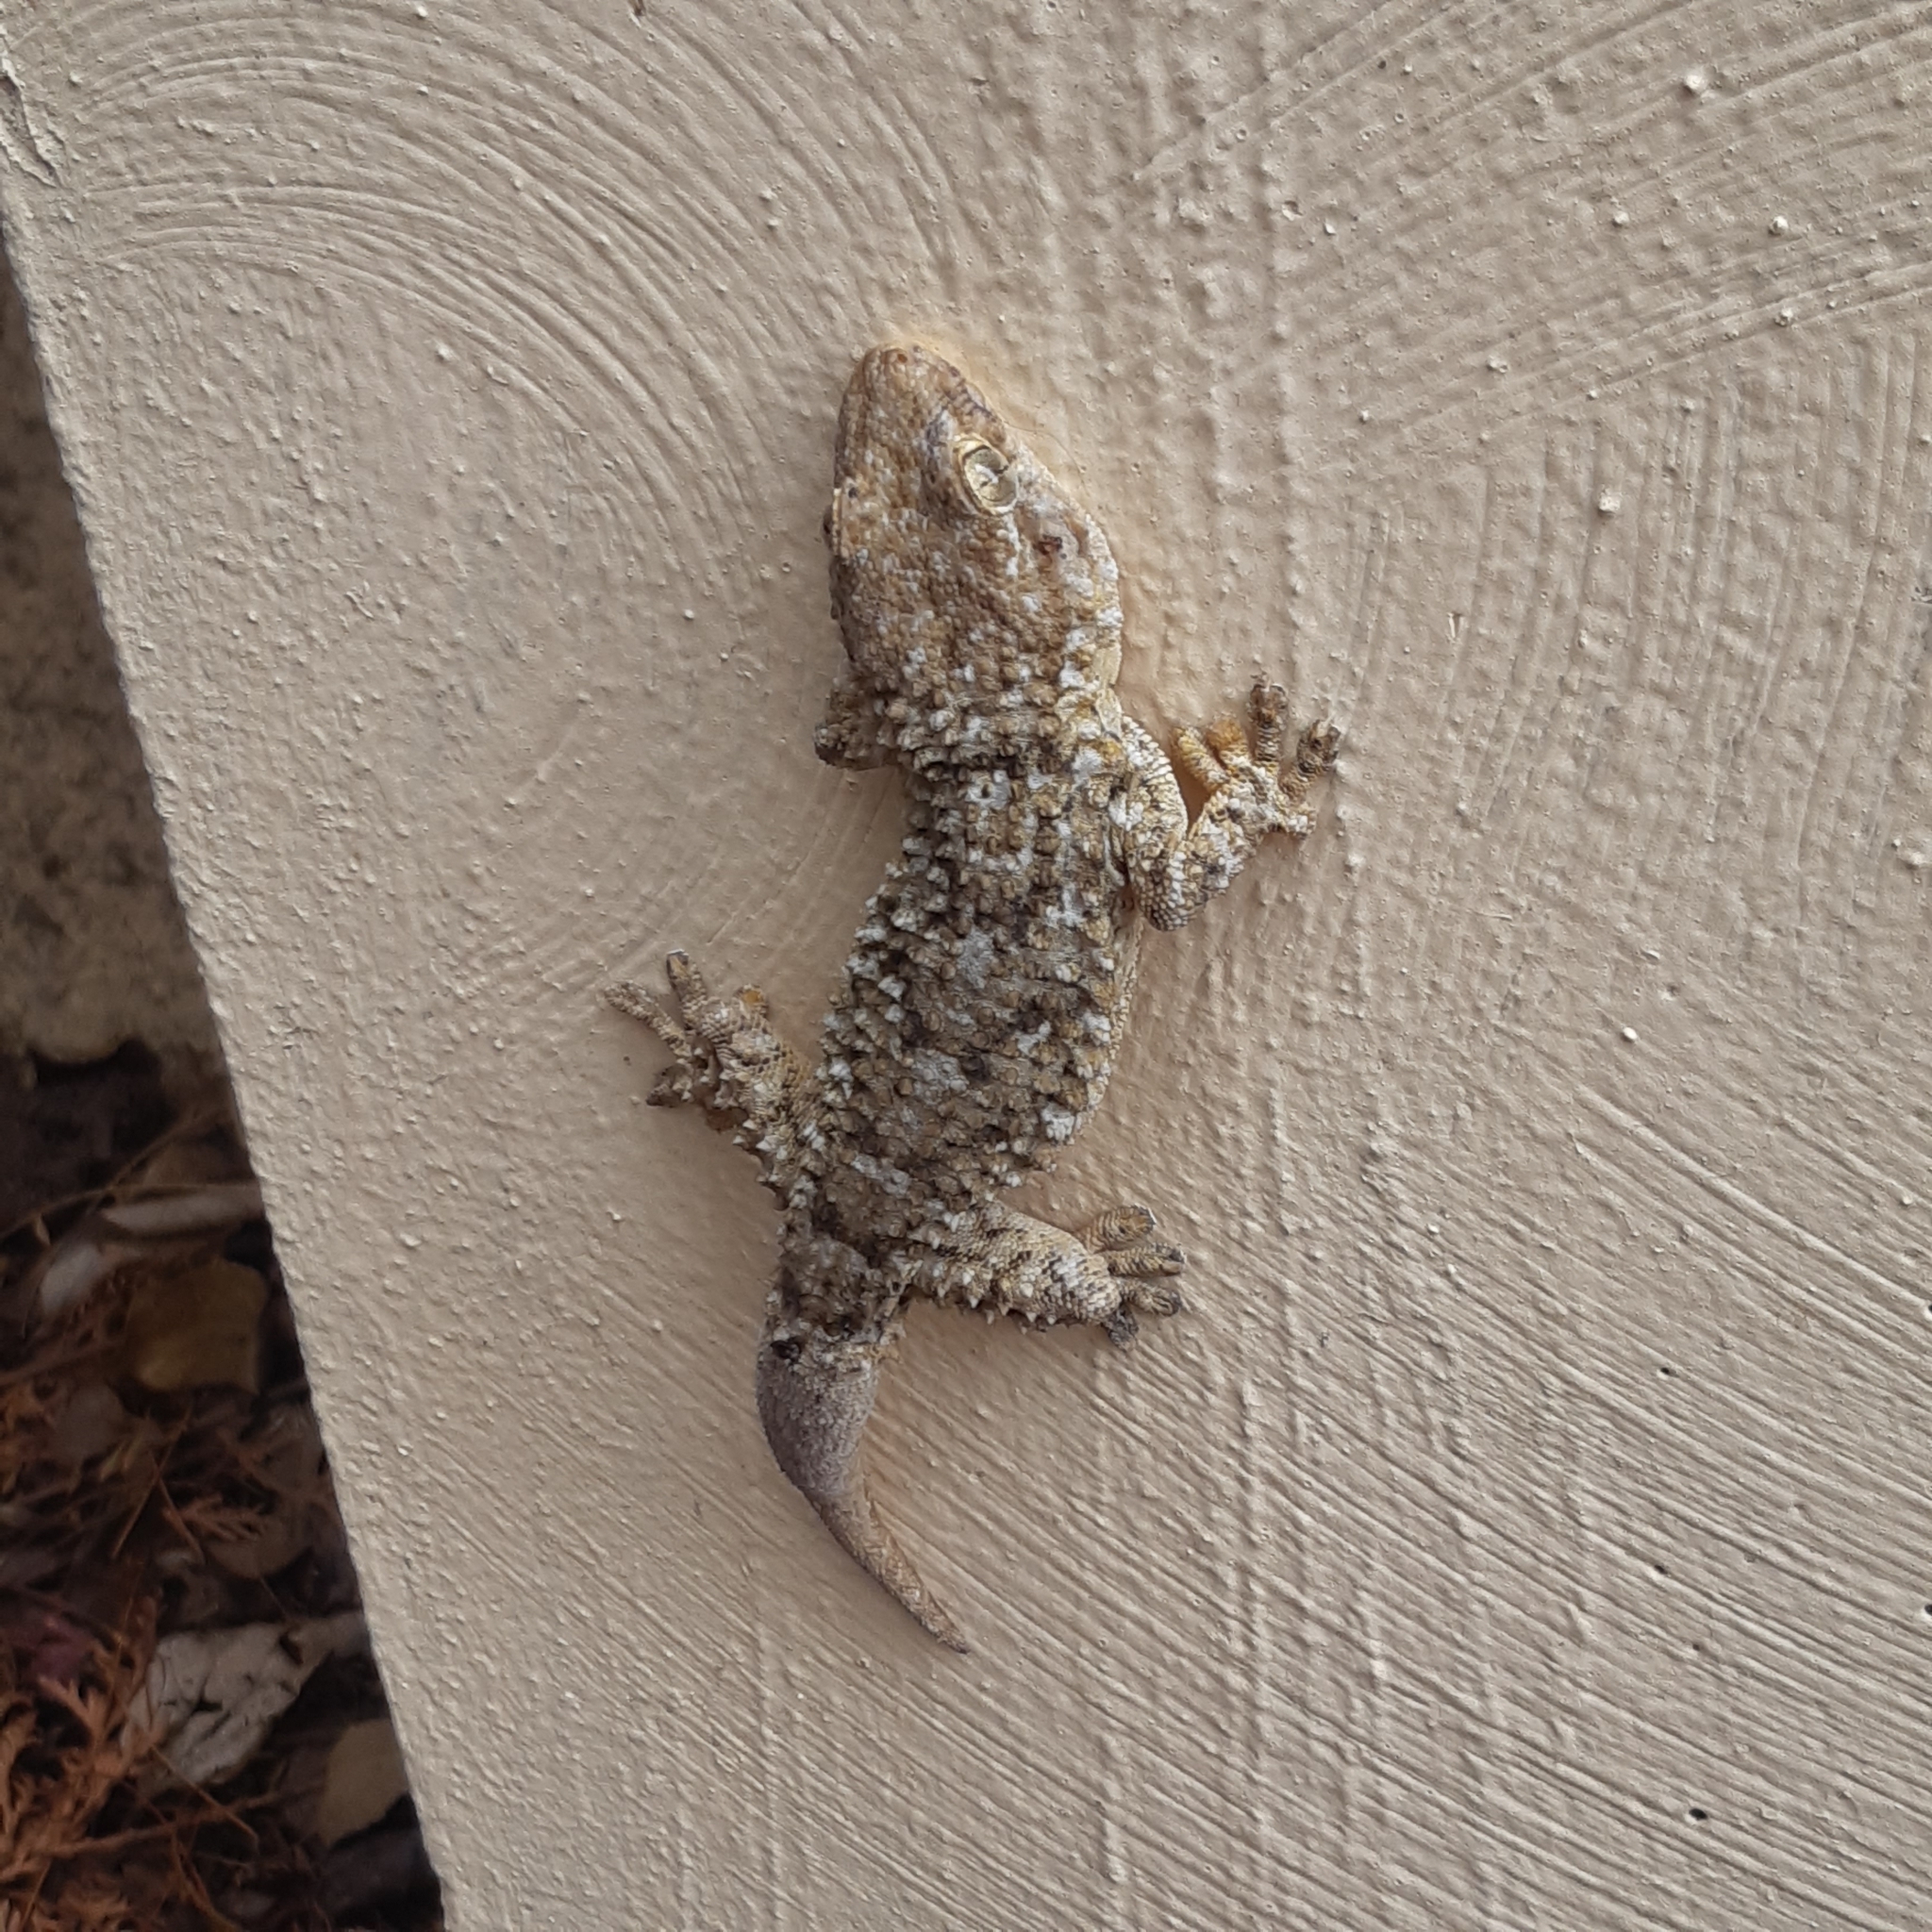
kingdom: Animalia
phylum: Chordata
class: Squamata
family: Phyllodactylidae
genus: Tarentola
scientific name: Tarentola mauritanica
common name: Moorish gecko
